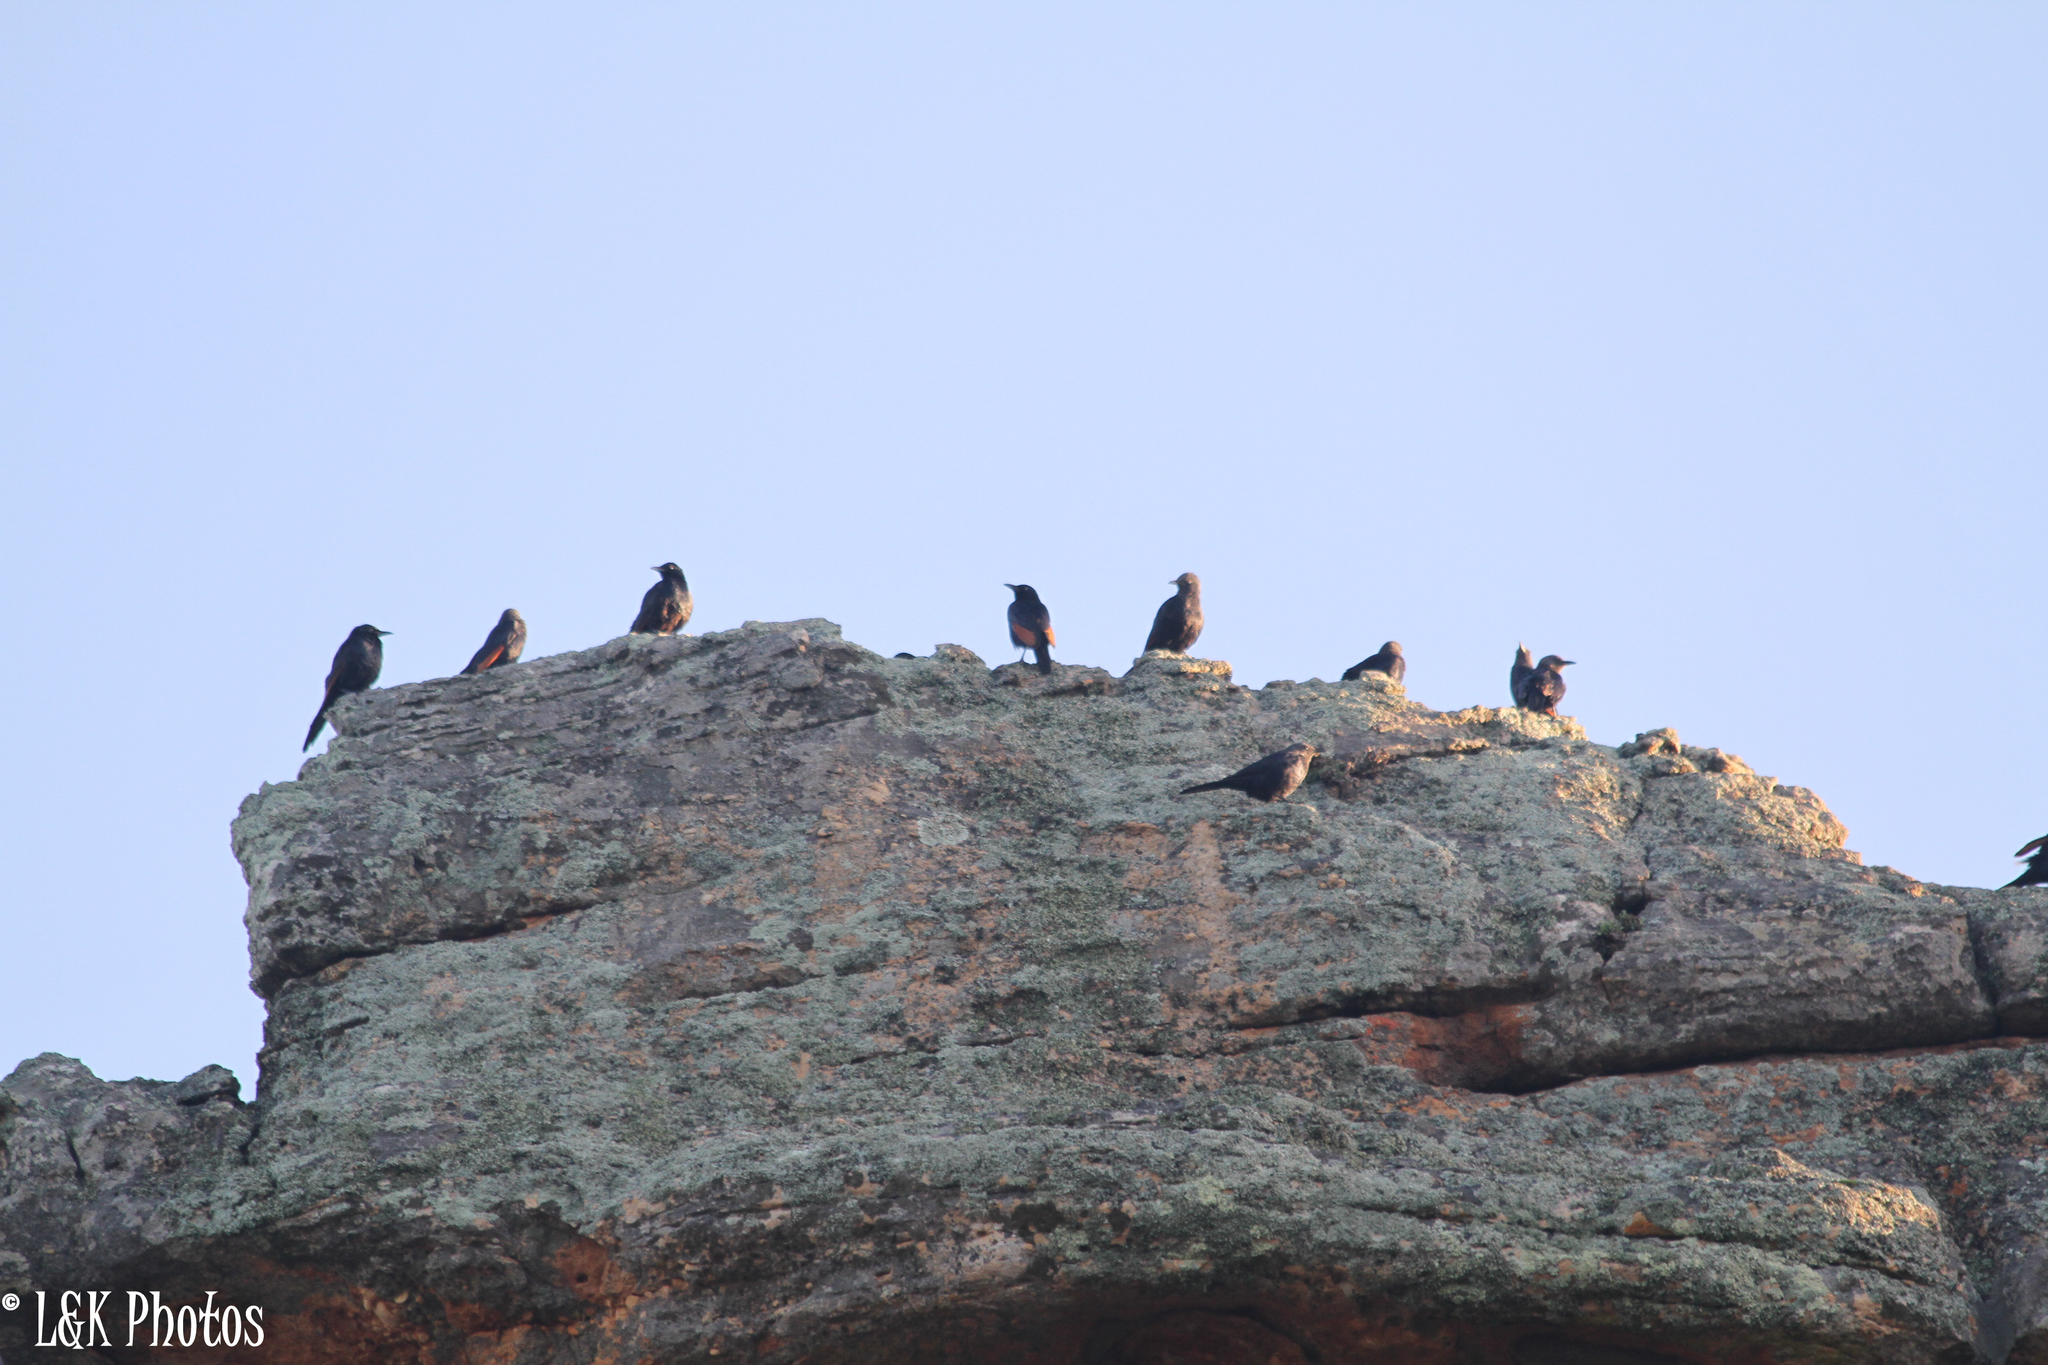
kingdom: Animalia
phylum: Chordata
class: Aves
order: Passeriformes
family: Sturnidae
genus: Onychognathus
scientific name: Onychognathus morio
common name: Red-winged starling
